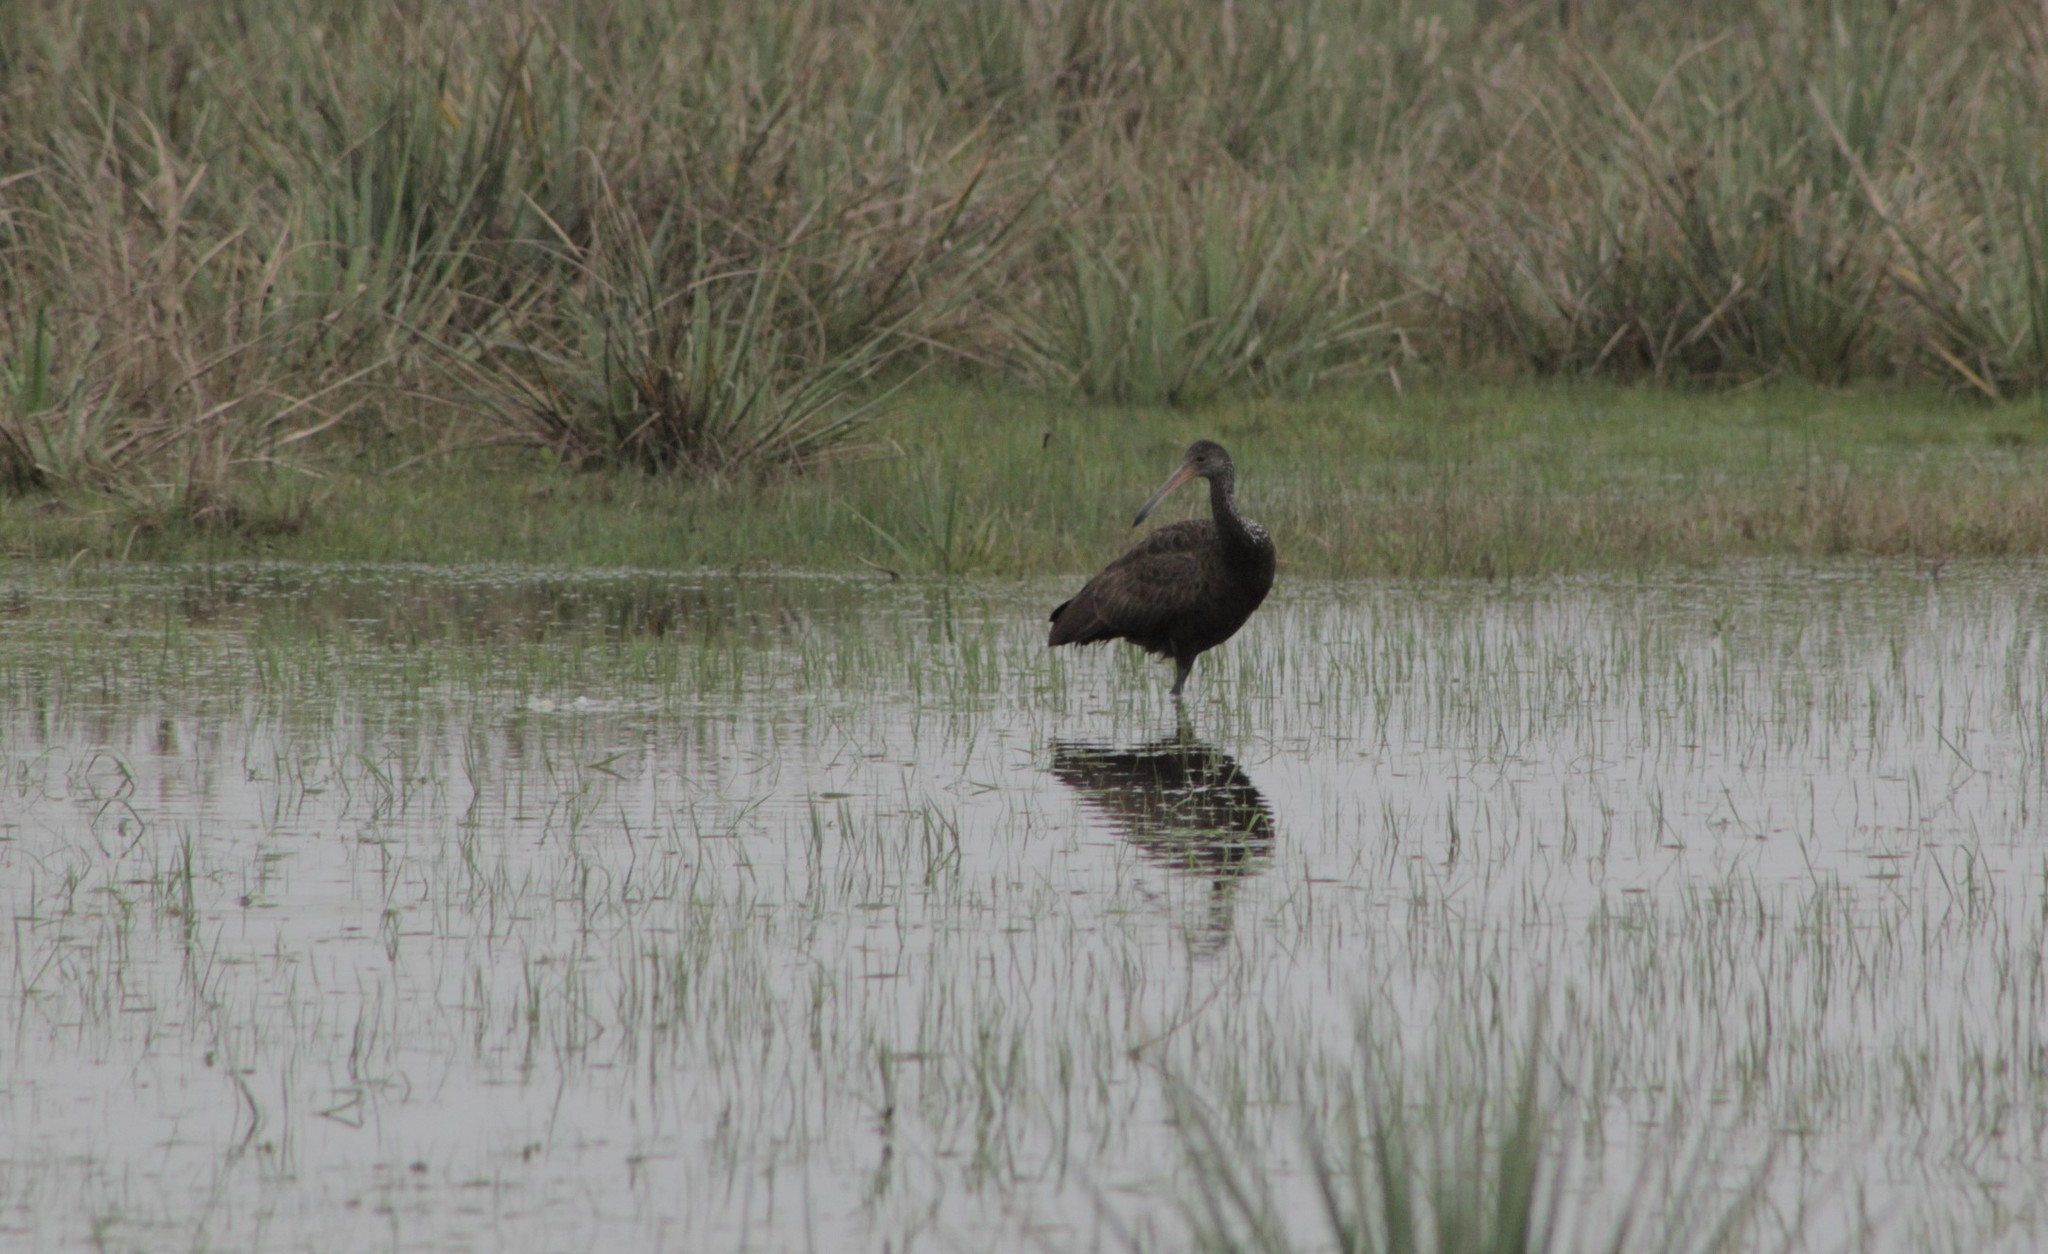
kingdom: Animalia
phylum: Chordata
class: Aves
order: Gruiformes
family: Aramidae
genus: Aramus
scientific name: Aramus guarauna
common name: Limpkin
